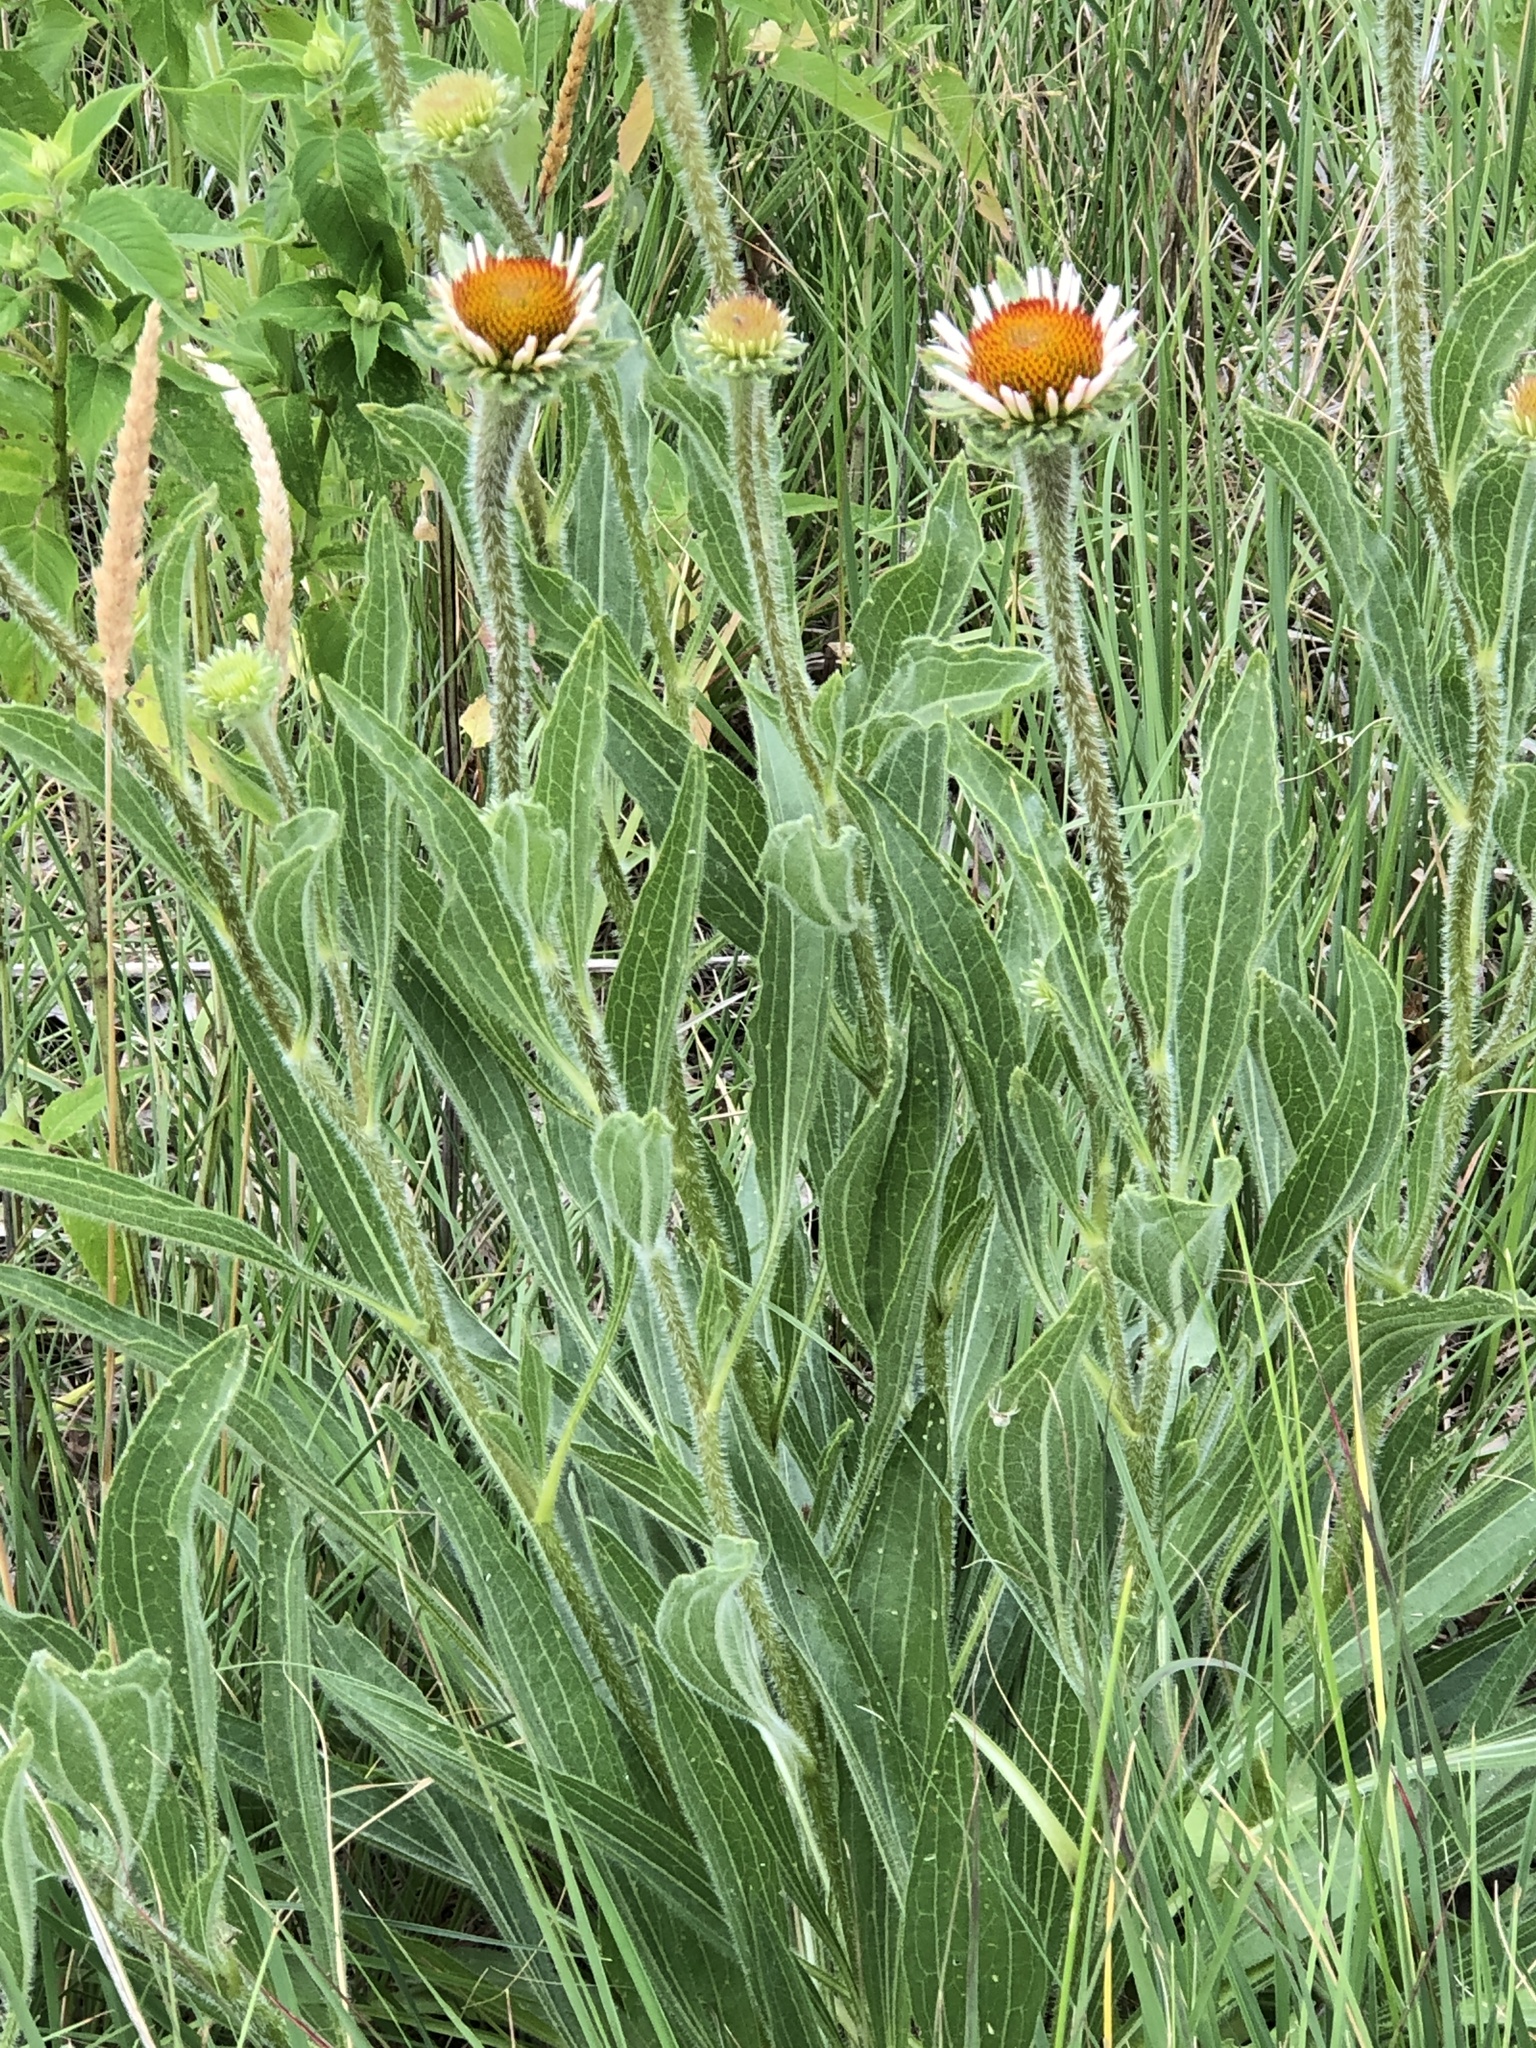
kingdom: Plantae
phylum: Tracheophyta
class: Magnoliopsida
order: Asterales
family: Asteraceae
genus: Echinacea
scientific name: Echinacea angustifolia
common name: Black-sampson echinacea
